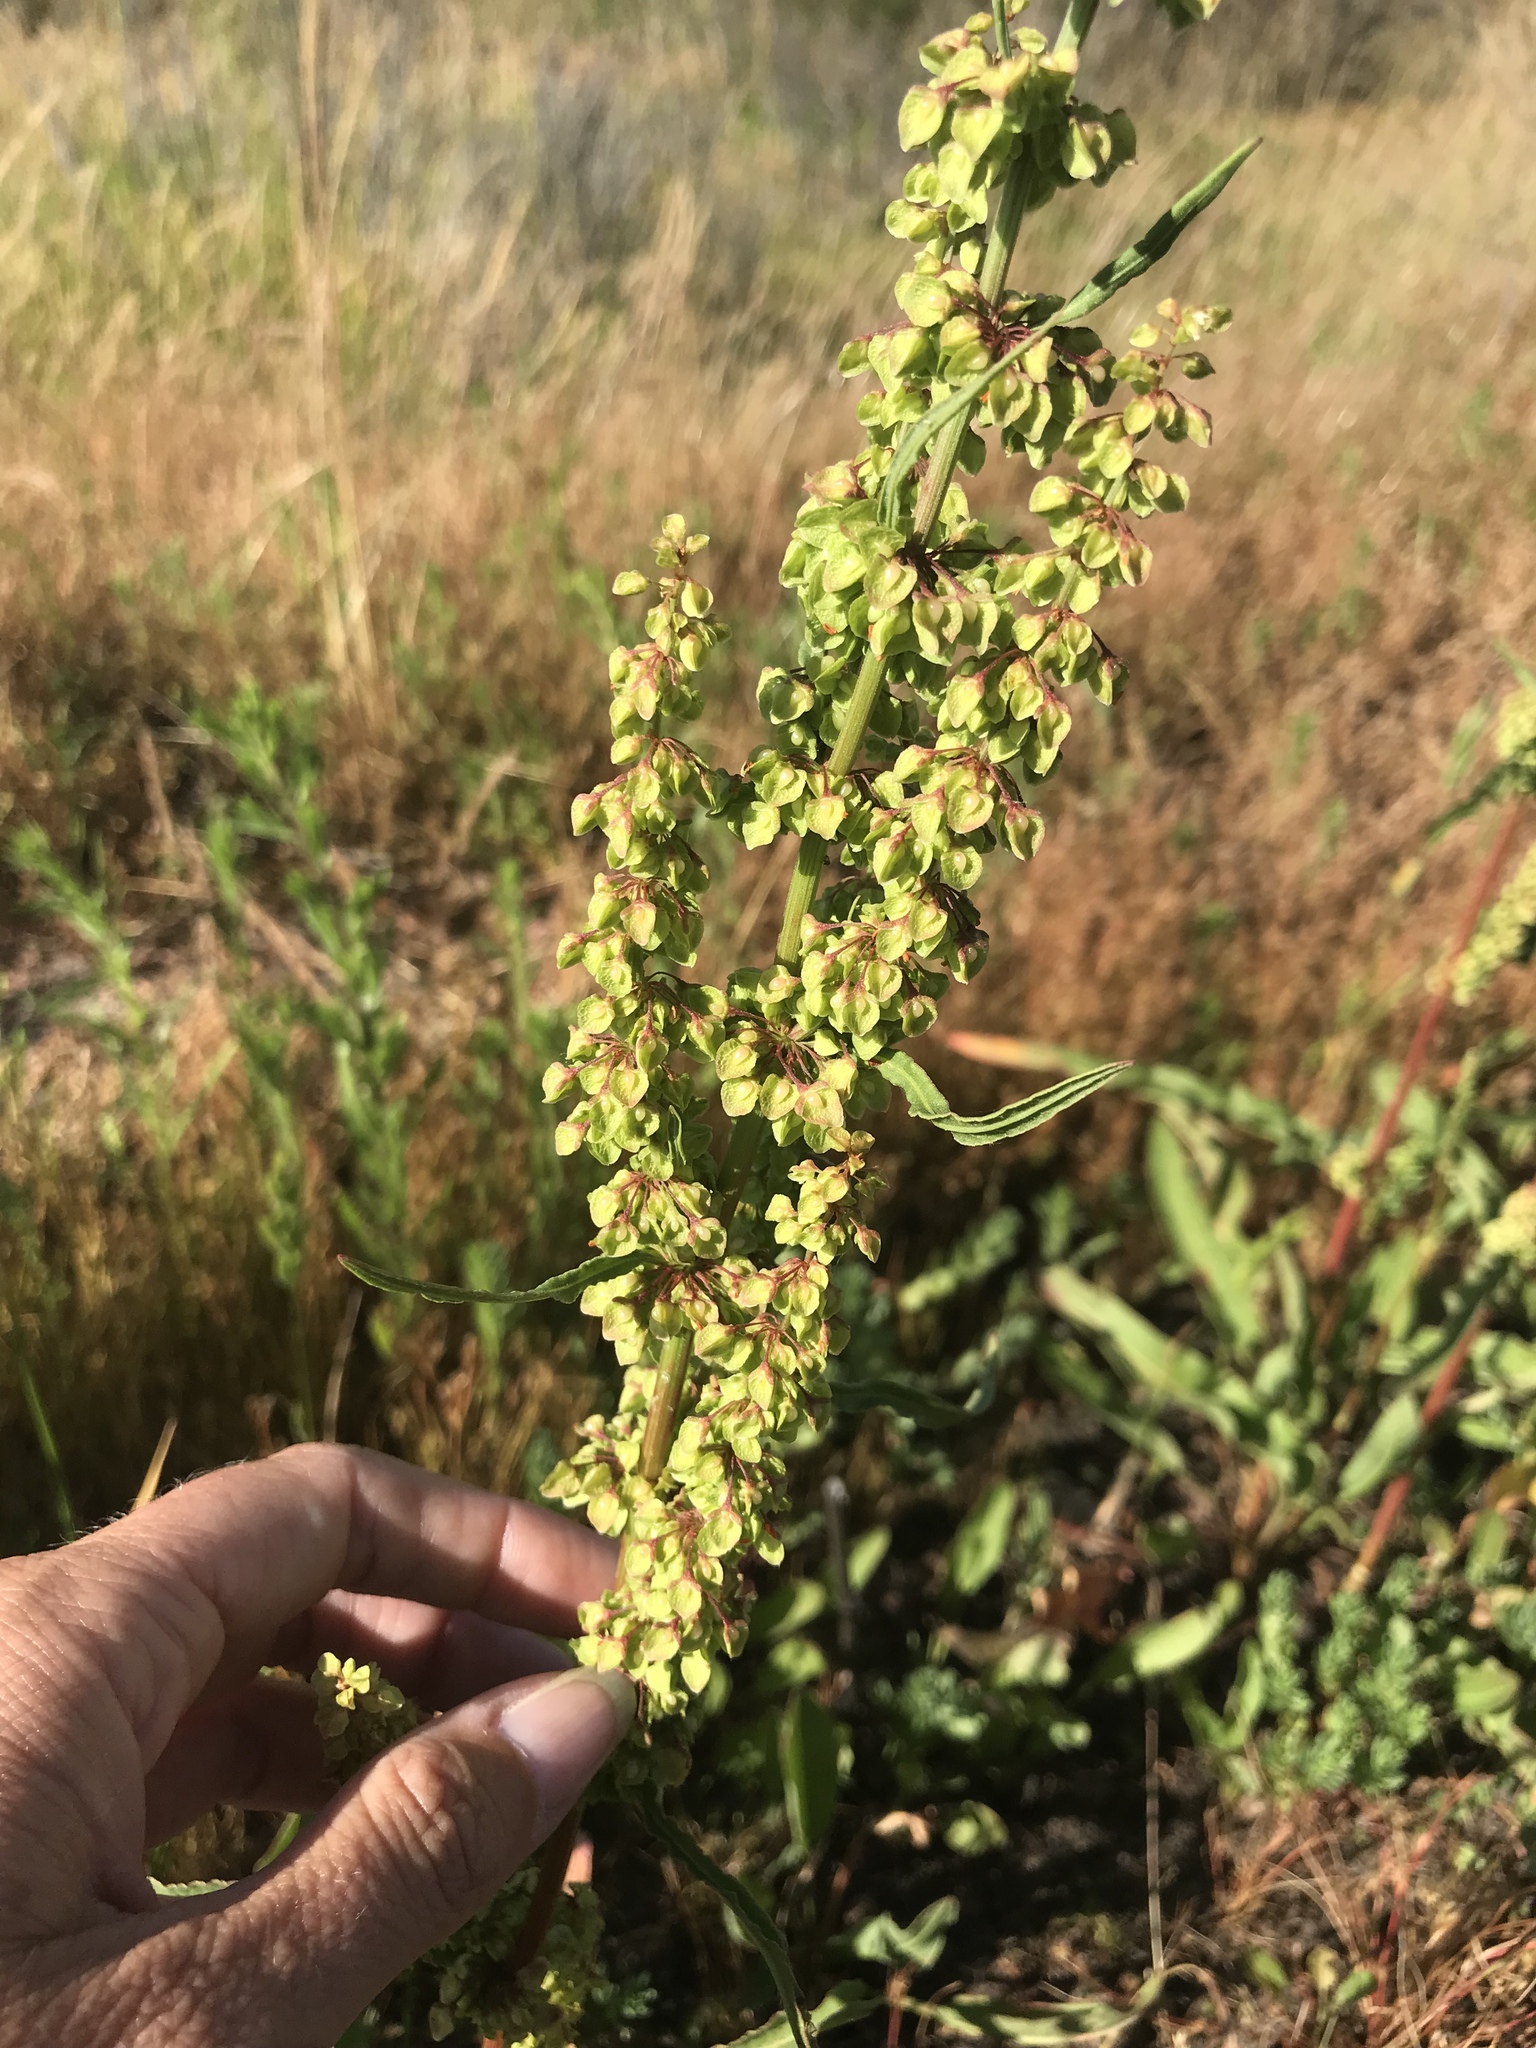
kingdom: Plantae
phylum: Tracheophyta
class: Magnoliopsida
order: Caryophyllales
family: Polygonaceae
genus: Rumex
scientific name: Rumex crispus
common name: Curled dock
